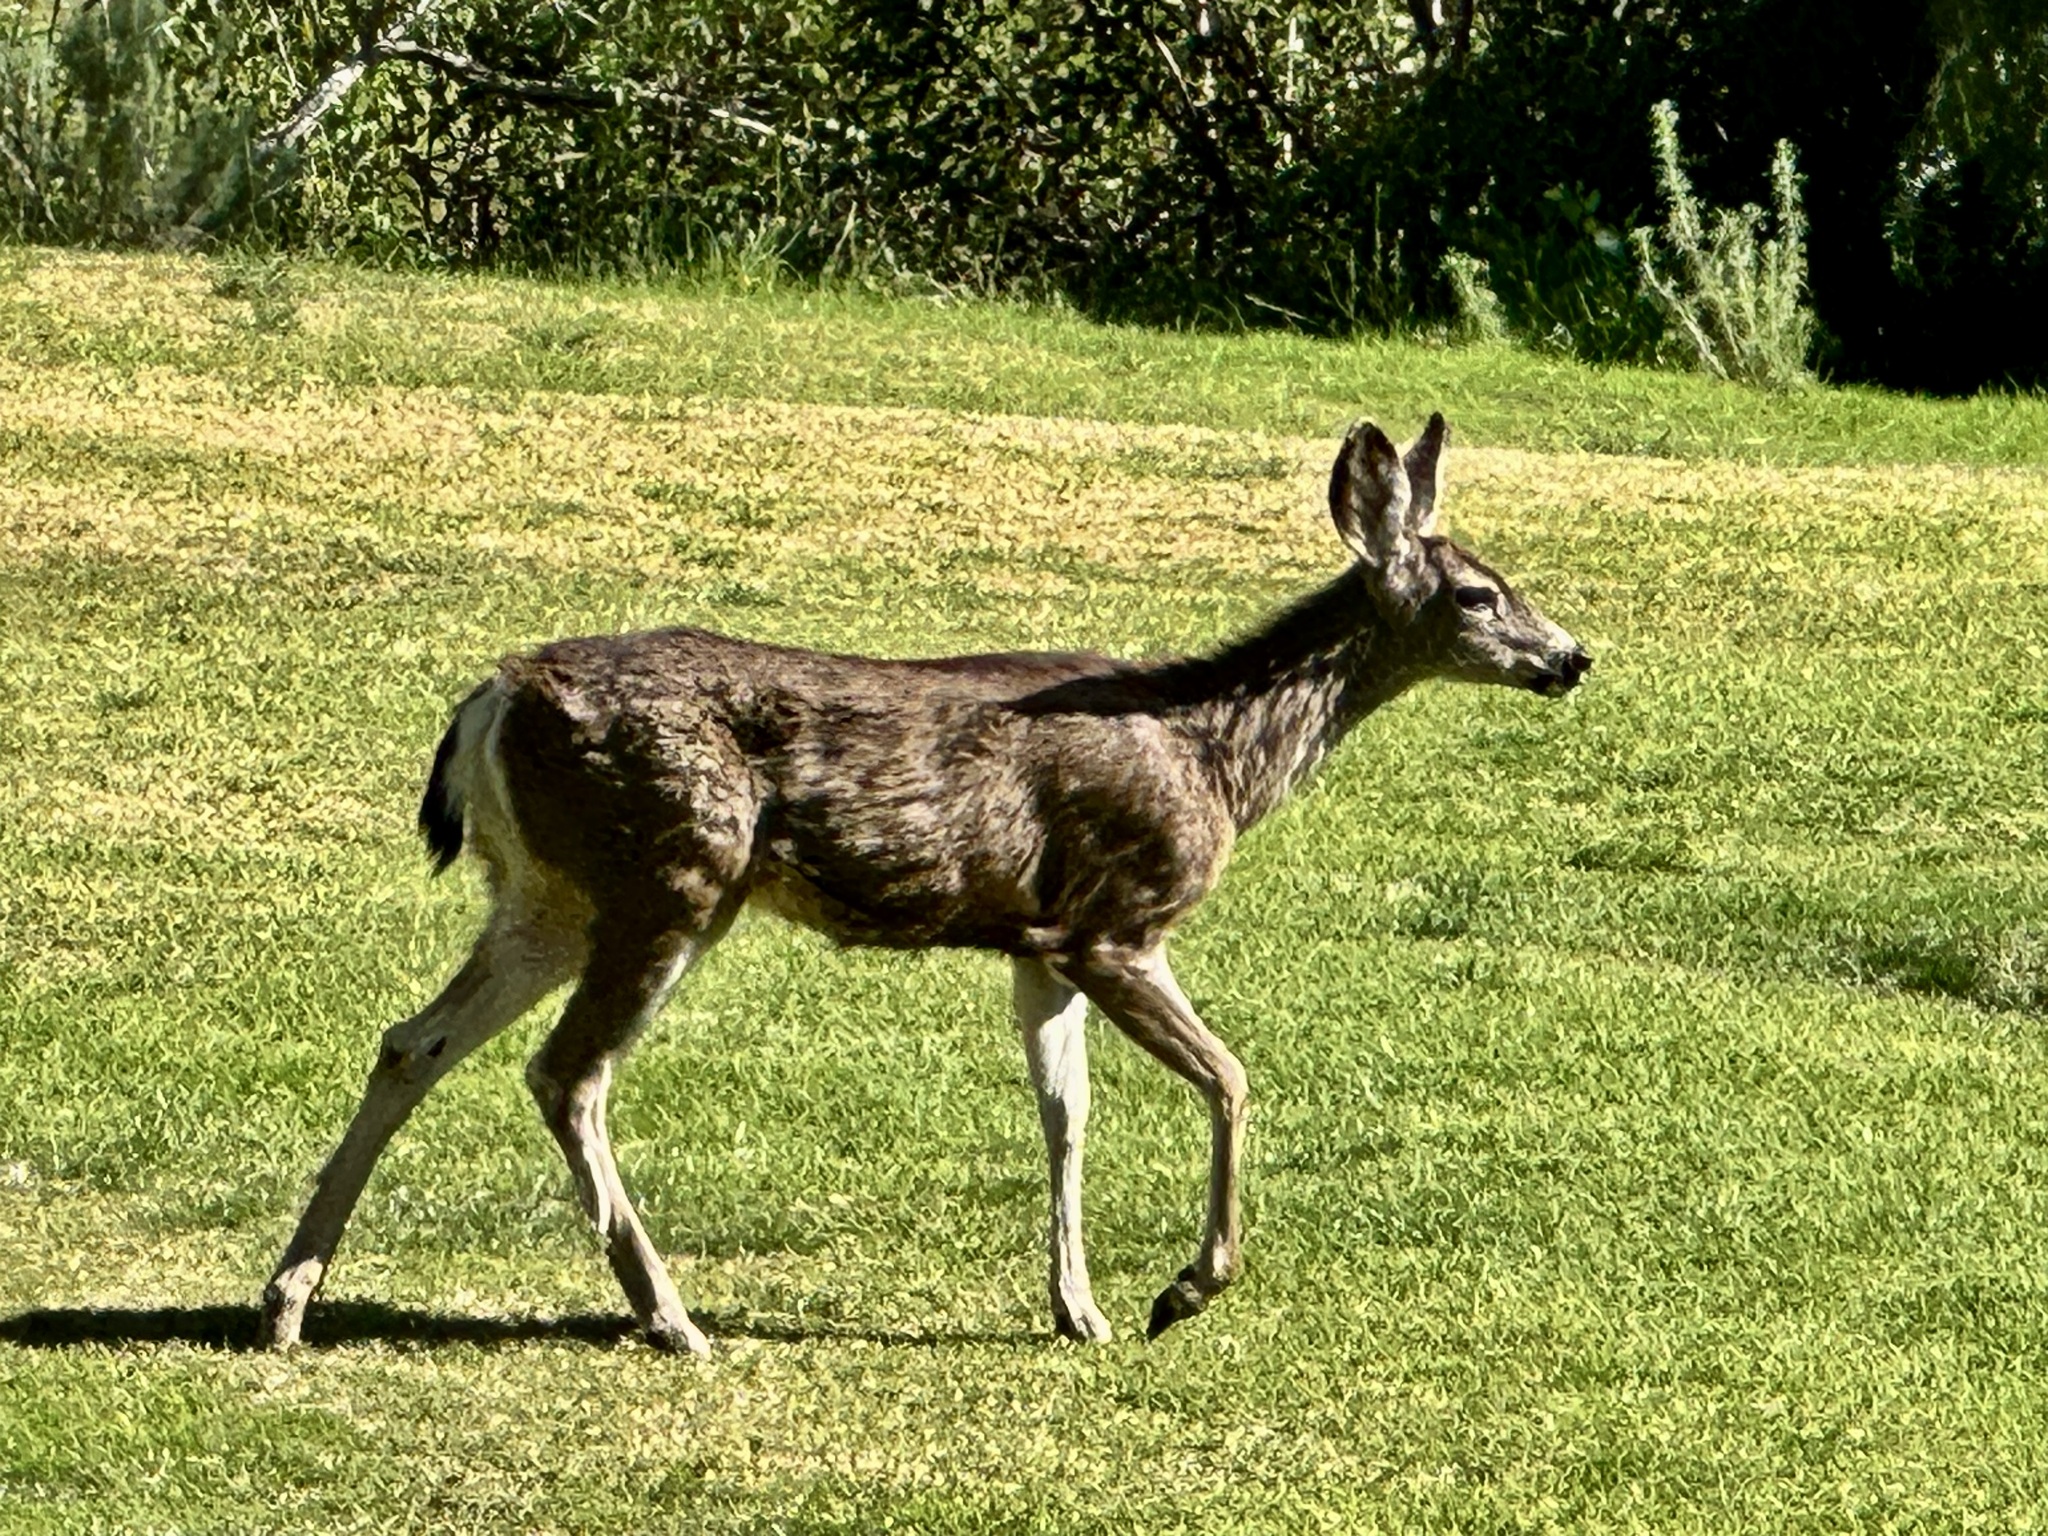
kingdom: Animalia
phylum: Chordata
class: Mammalia
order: Artiodactyla
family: Cervidae
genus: Odocoileus
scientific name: Odocoileus hemionus
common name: Mule deer
